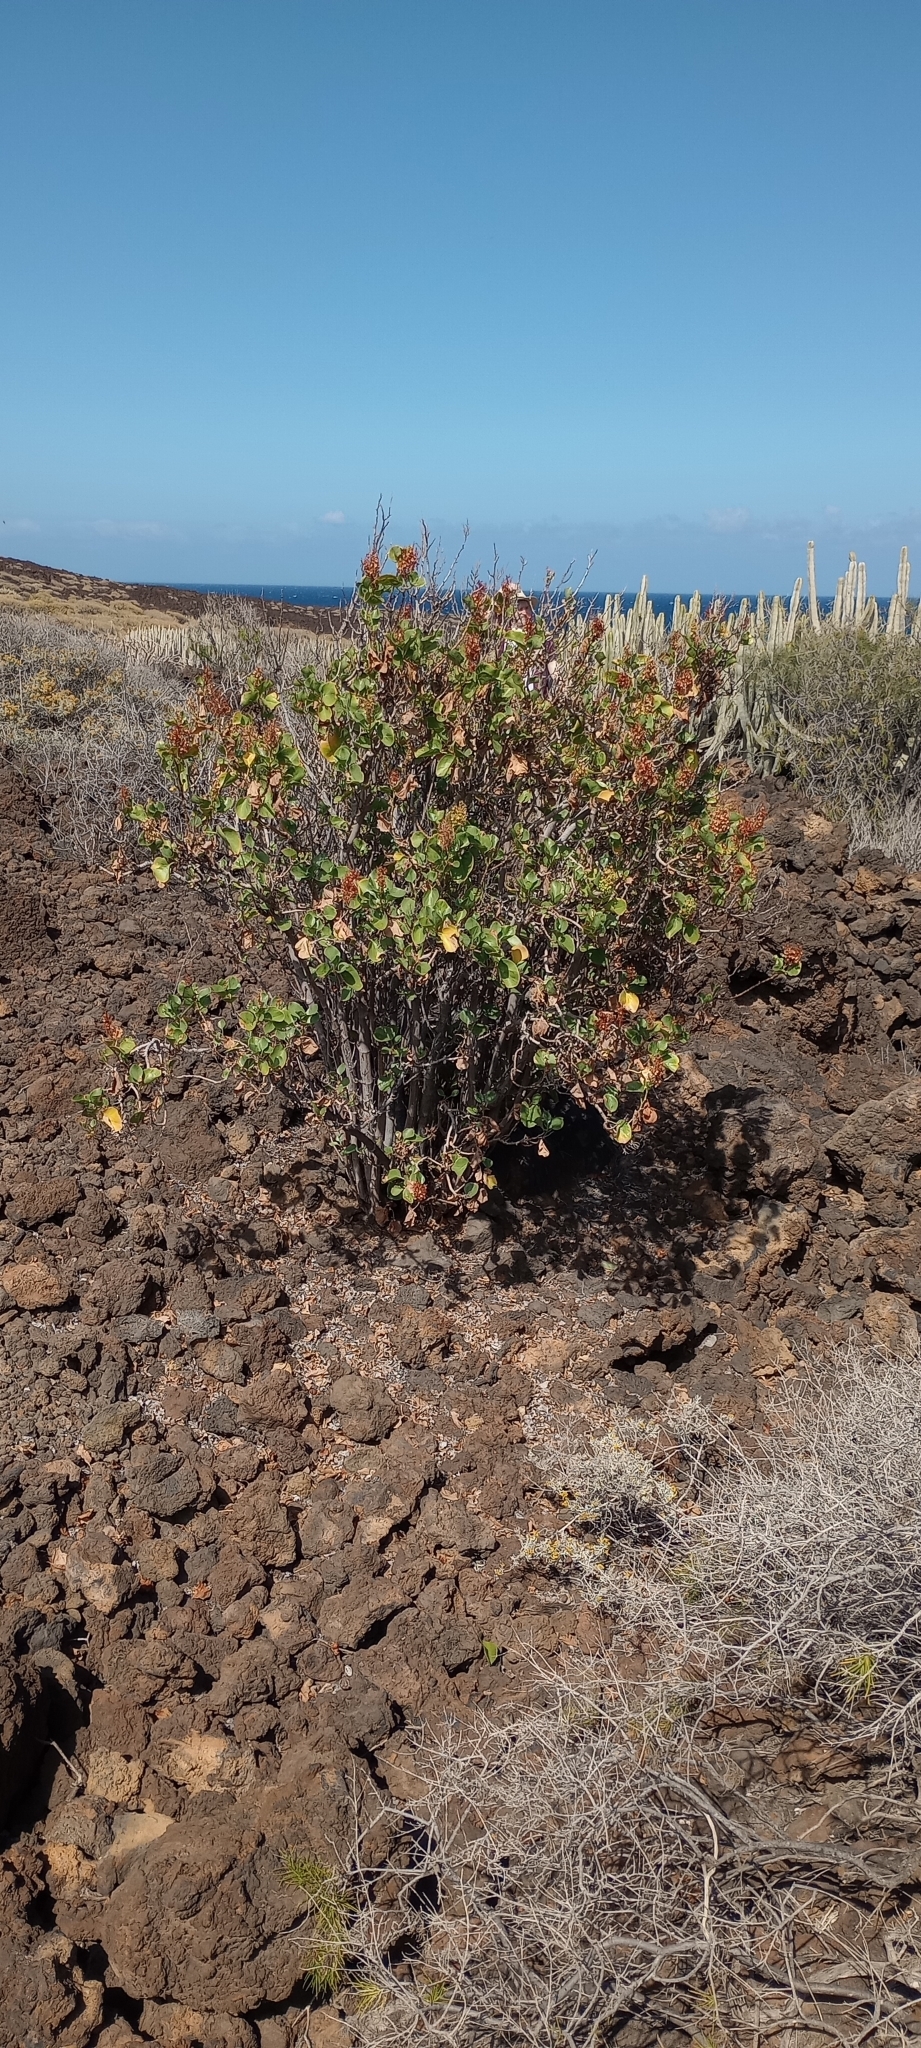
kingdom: Plantae
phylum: Tracheophyta
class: Magnoliopsida
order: Caryophyllales
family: Polygonaceae
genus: Rumex
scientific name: Rumex lunaria
